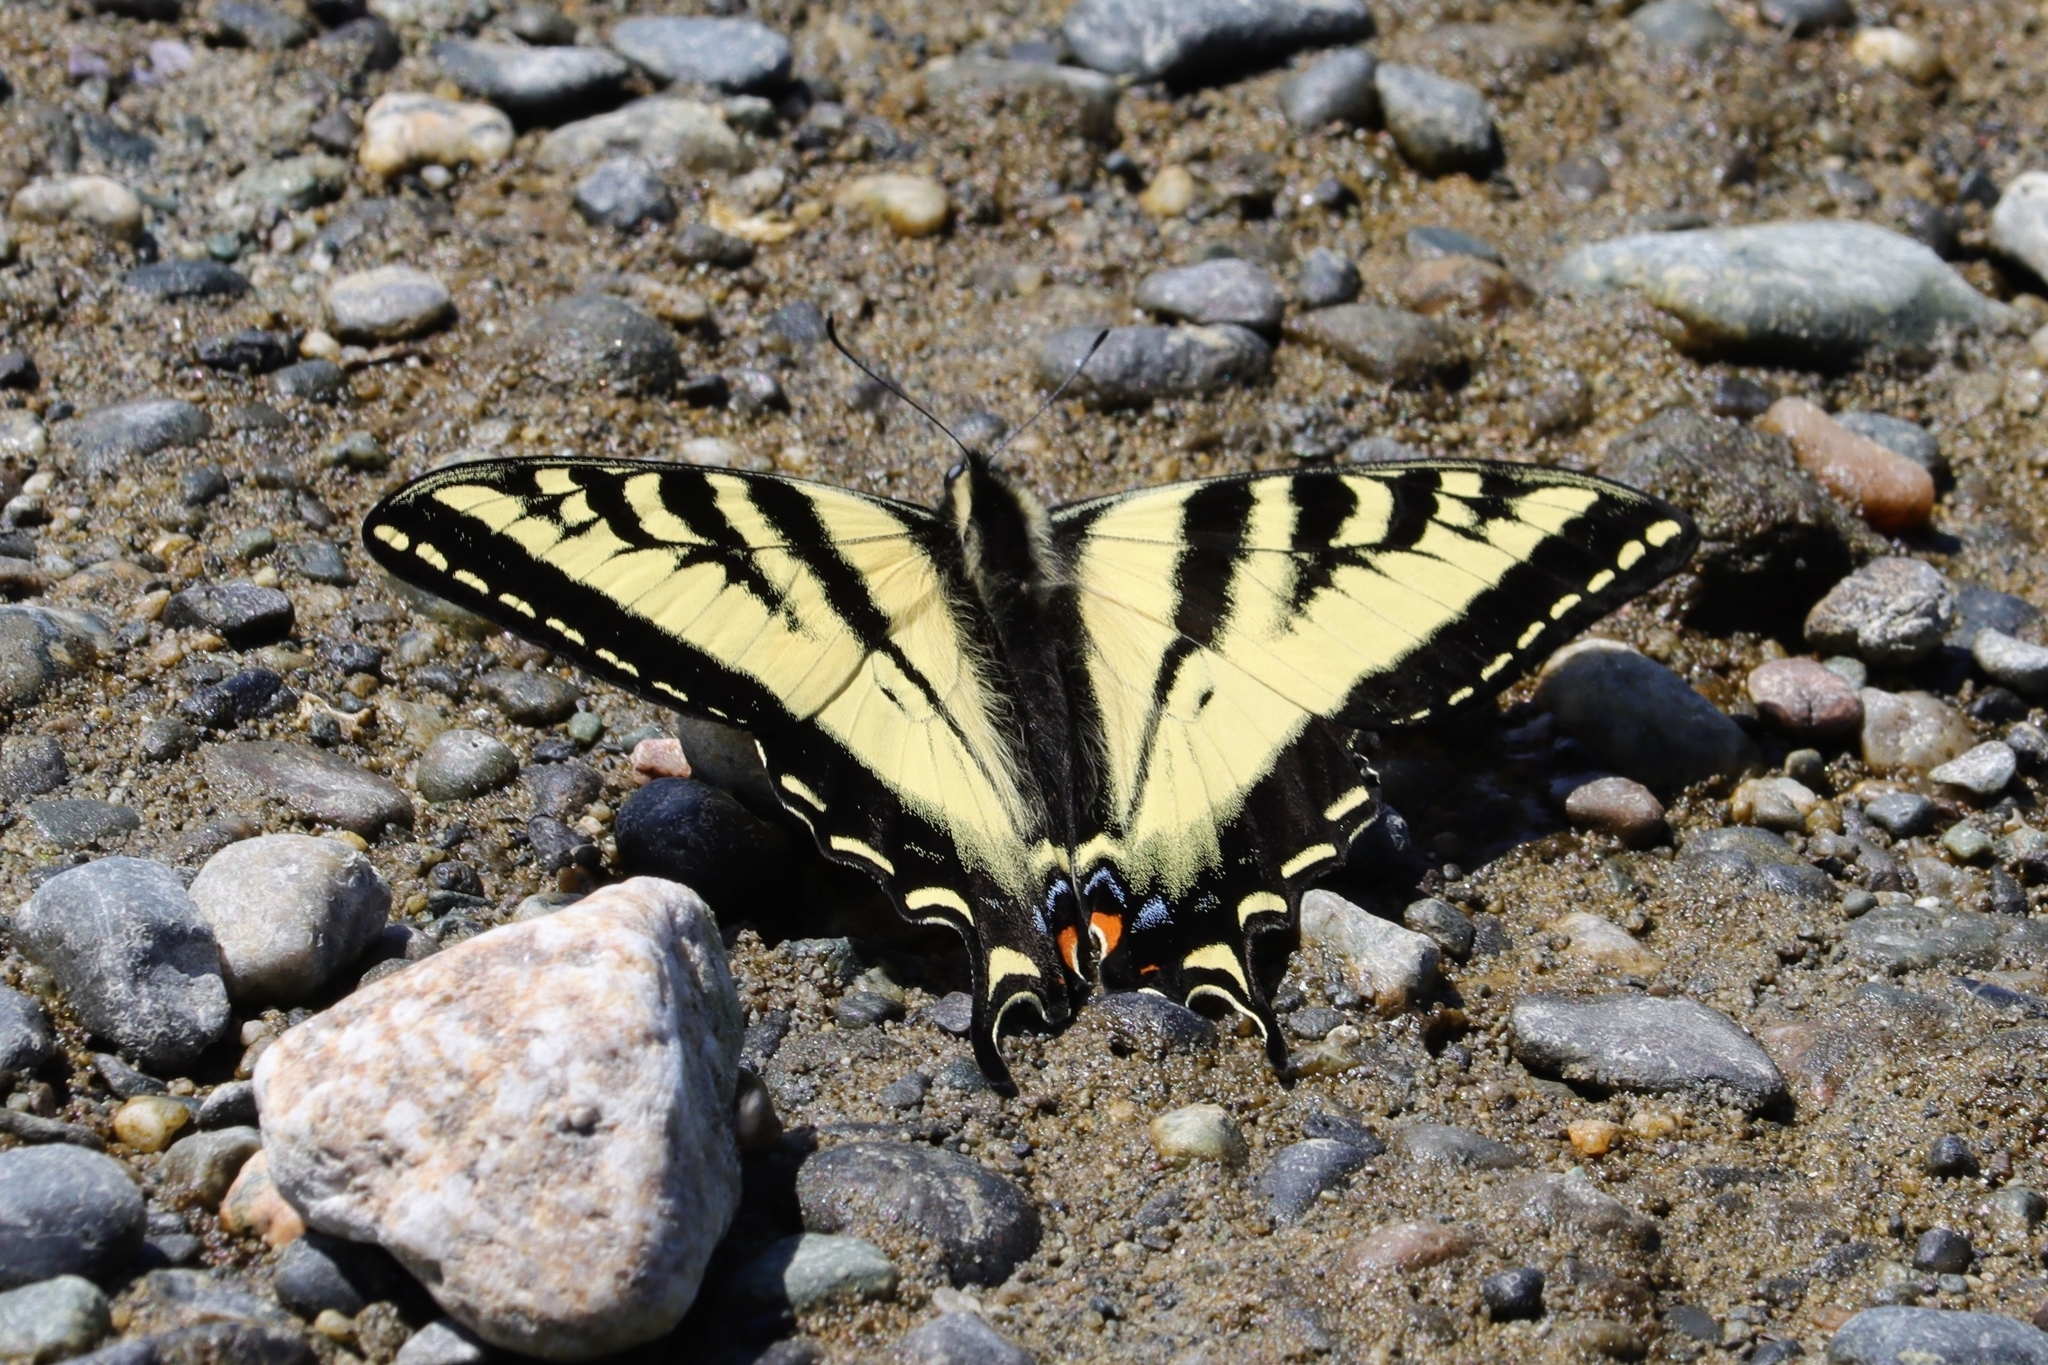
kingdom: Animalia
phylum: Arthropoda
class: Insecta
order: Lepidoptera
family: Papilionidae
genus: Papilio
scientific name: Papilio rutulus
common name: Western tiger swallowtail
